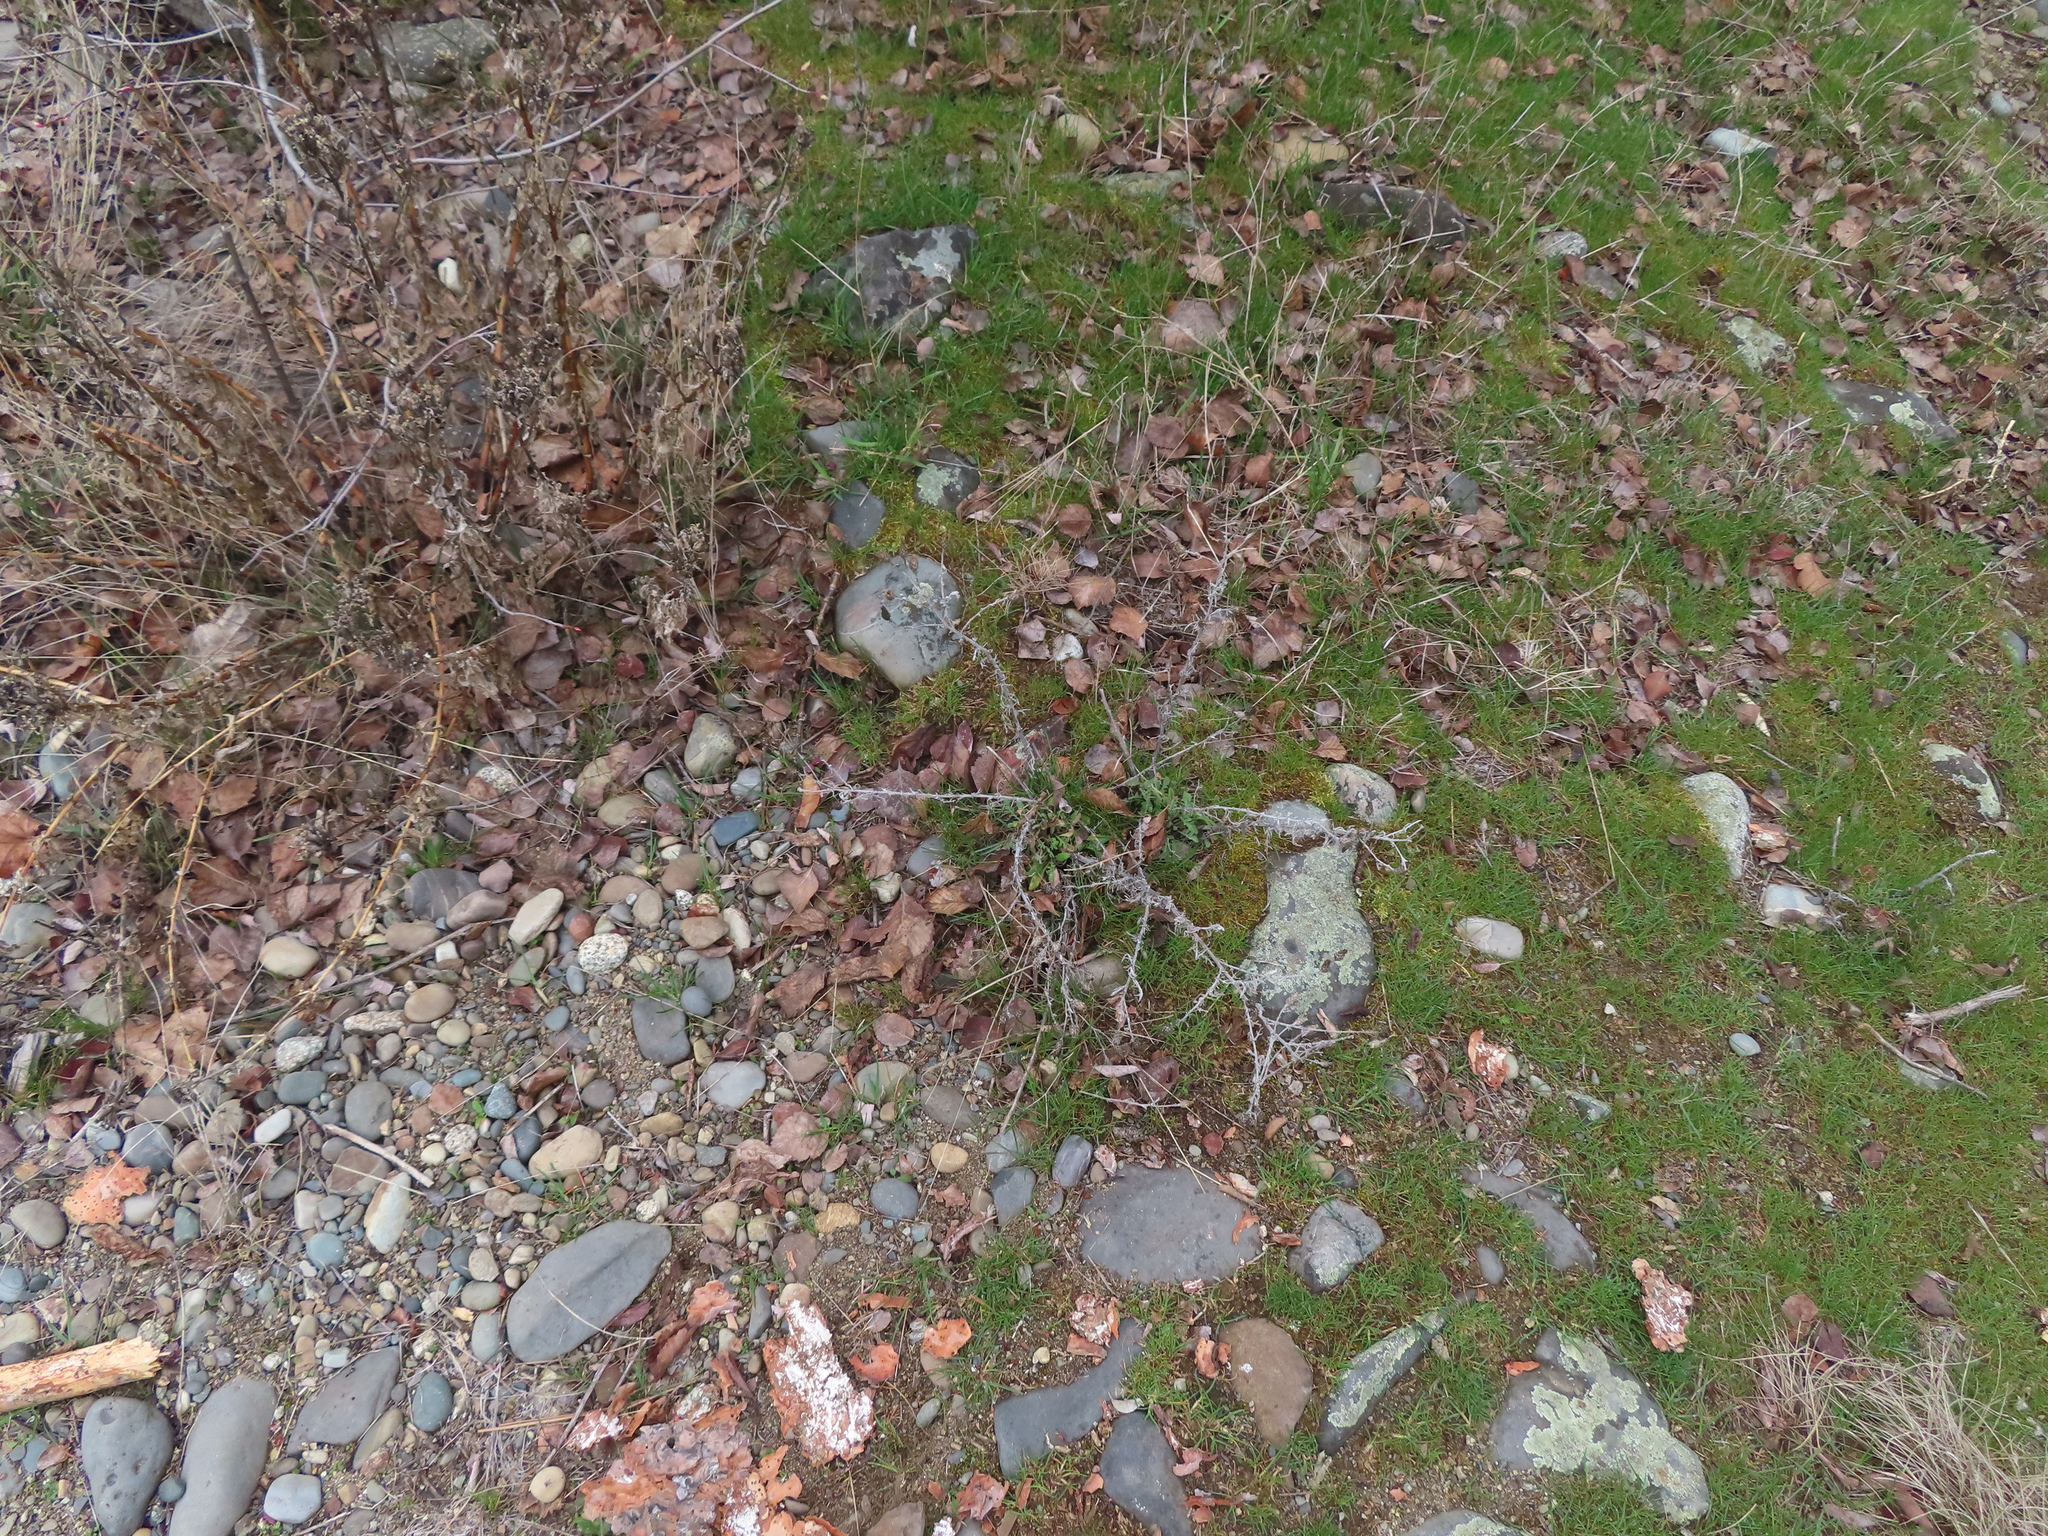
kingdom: Plantae
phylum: Tracheophyta
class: Magnoliopsida
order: Asterales
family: Asteraceae
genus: Centaurea
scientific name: Centaurea stoebe
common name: Spotted knapweed
